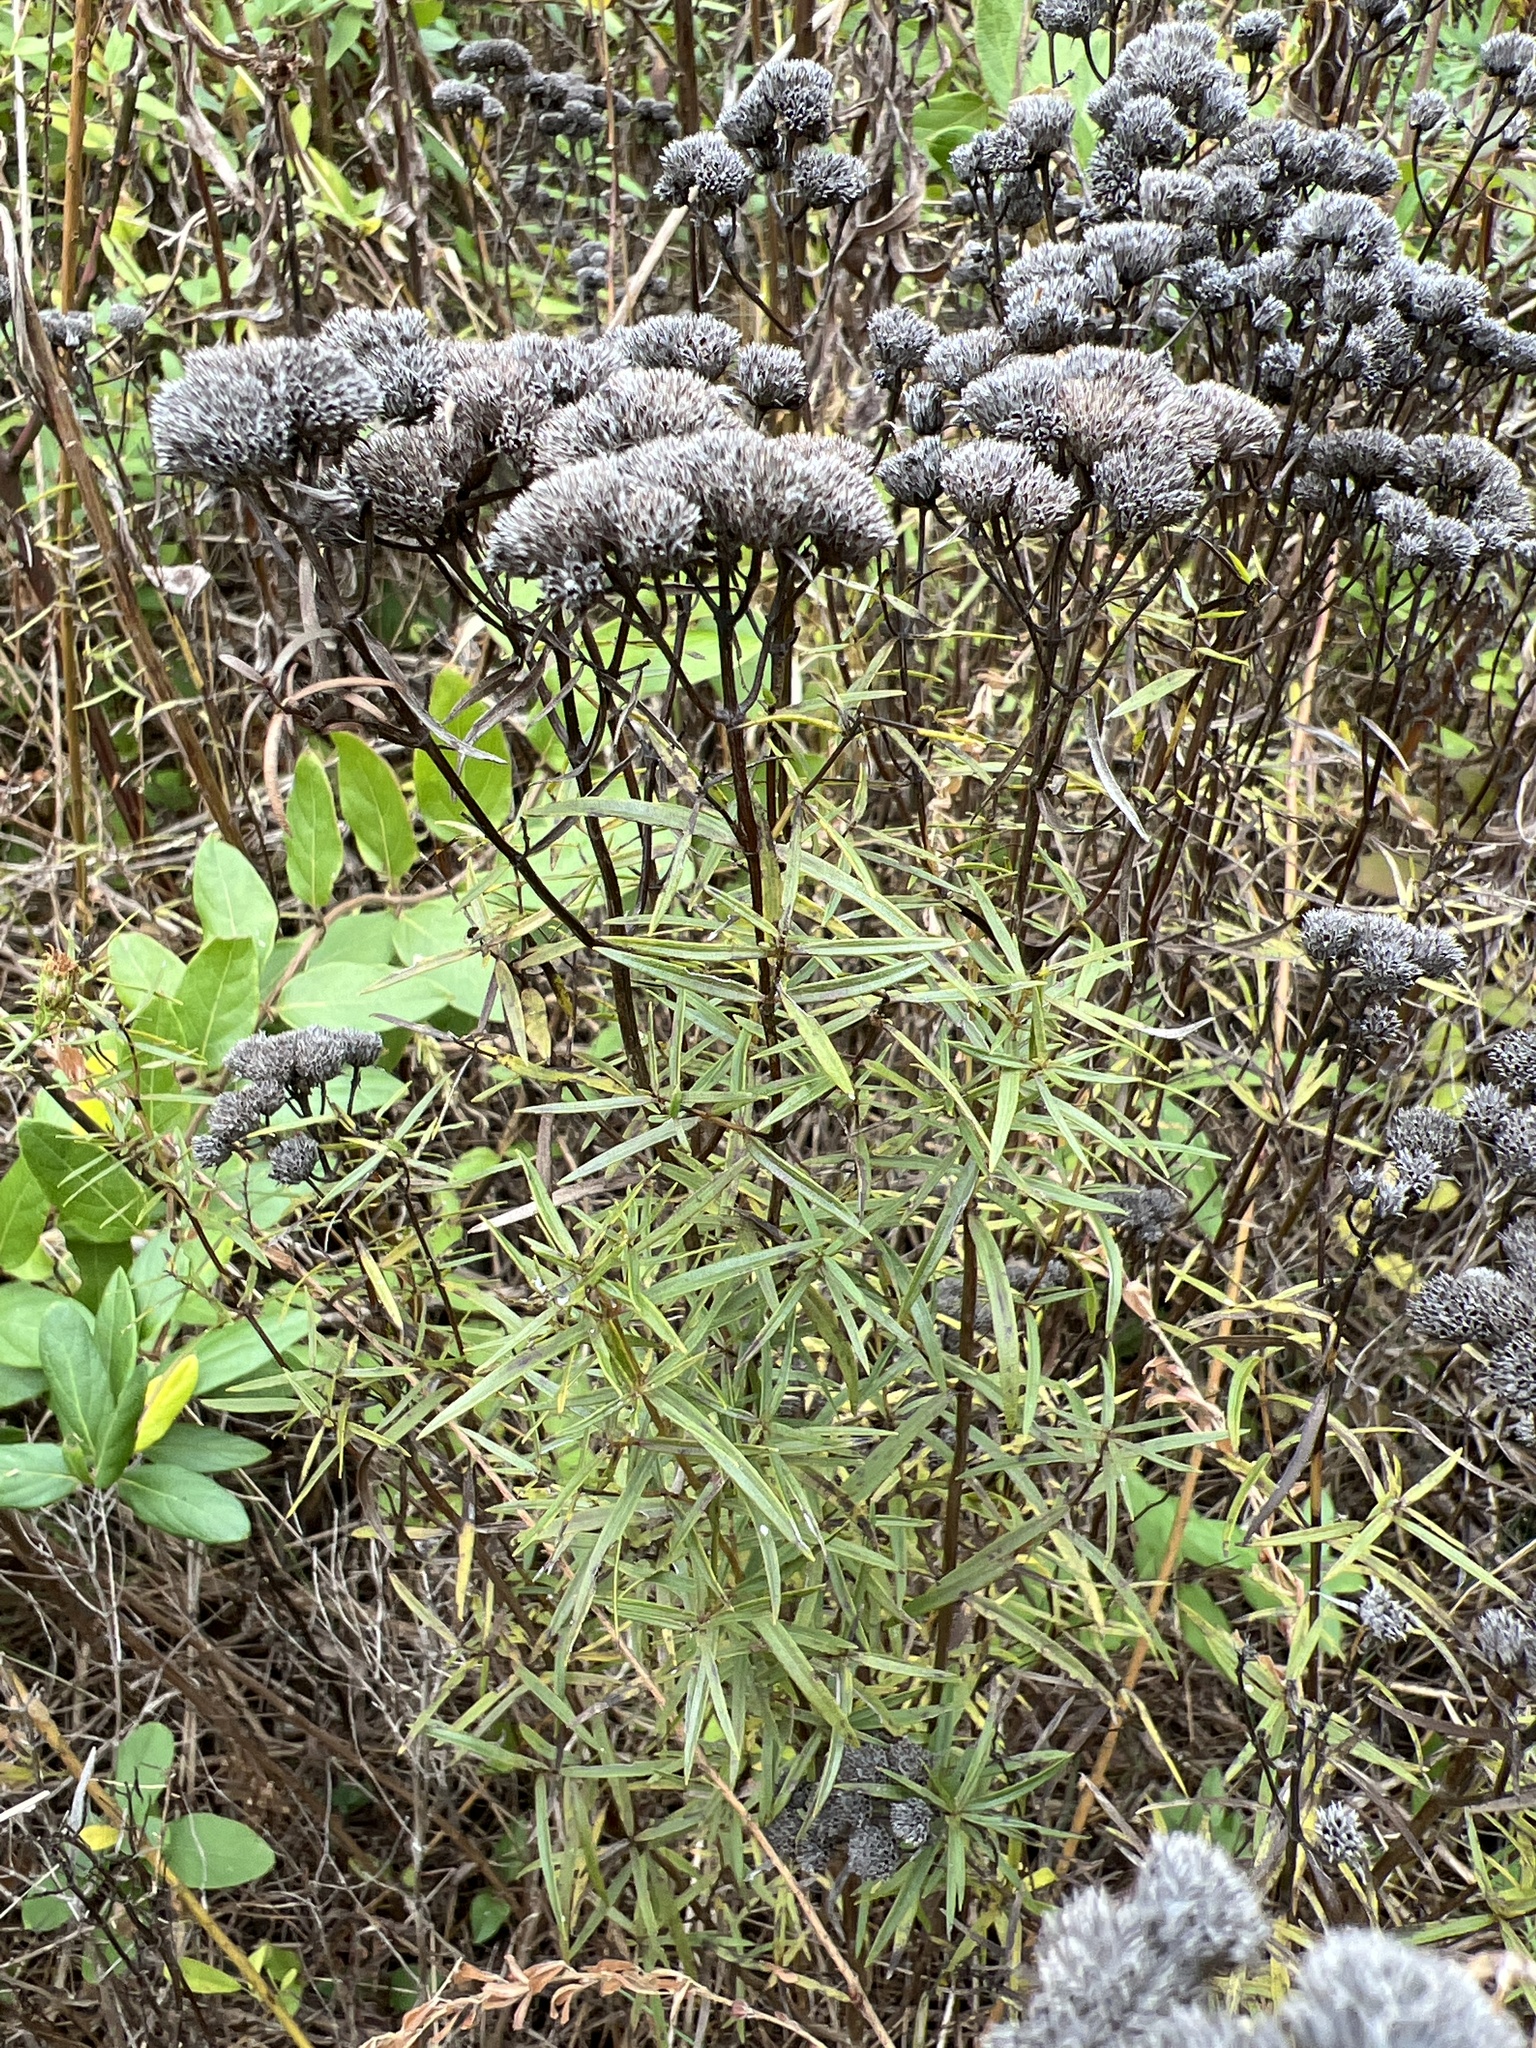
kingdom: Plantae
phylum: Tracheophyta
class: Magnoliopsida
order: Lamiales
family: Lamiaceae
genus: Pycnanthemum
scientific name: Pycnanthemum tenuifolium
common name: Narrow-leaf mountain-mint
